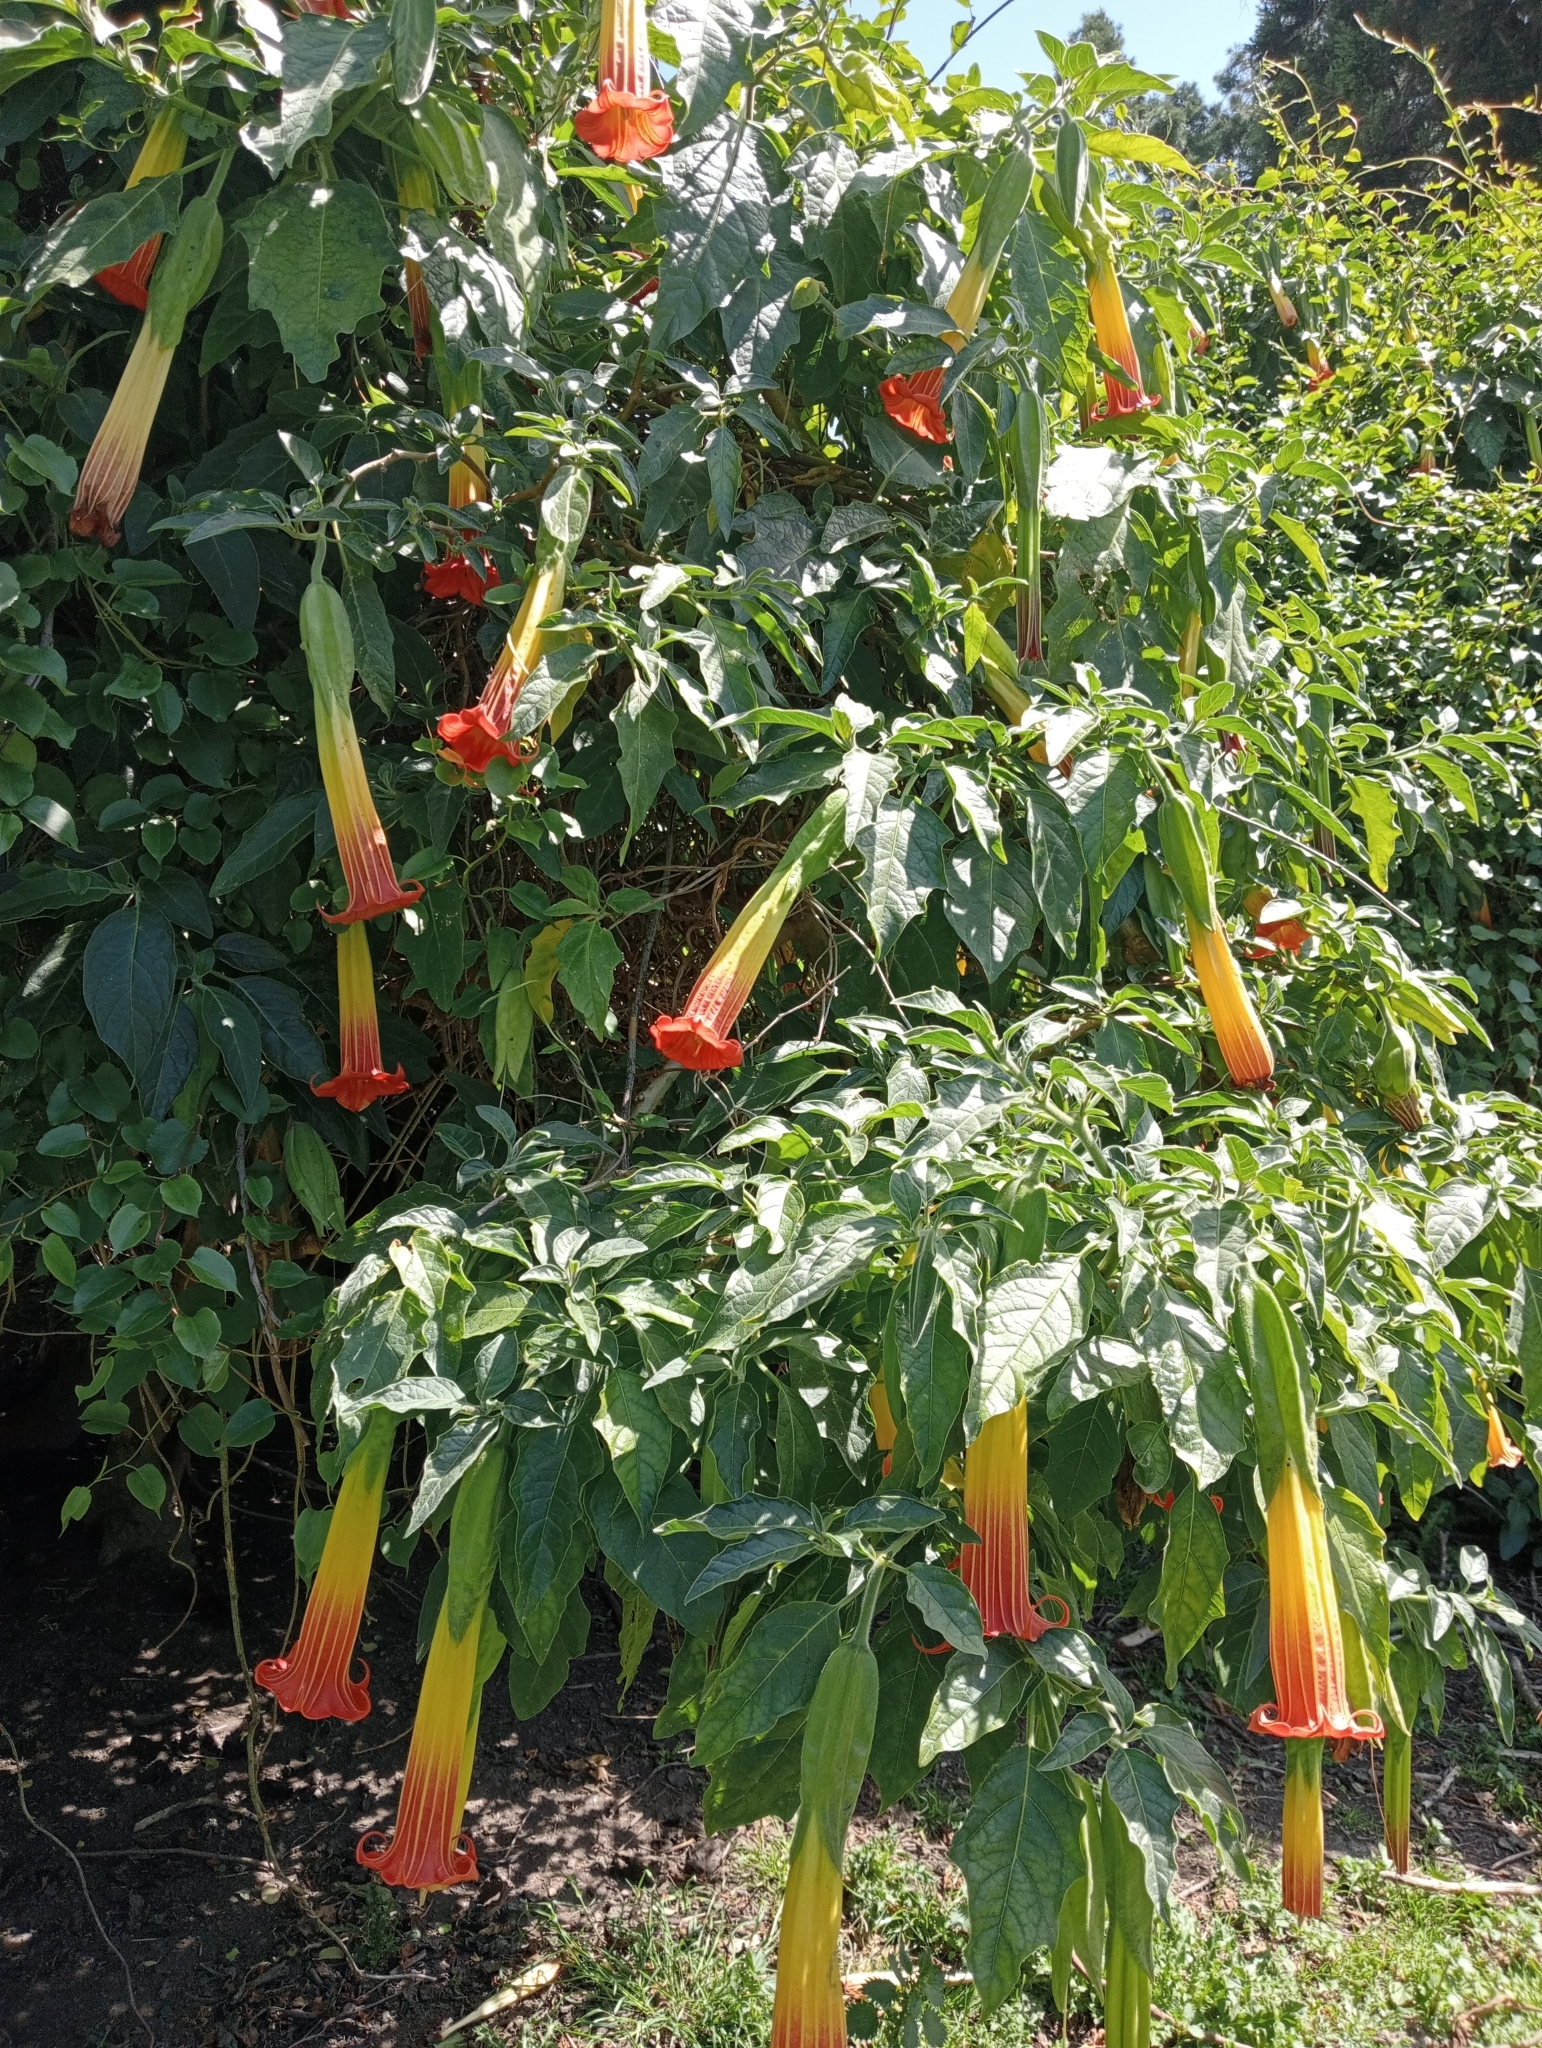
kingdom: Plantae
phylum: Tracheophyta
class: Magnoliopsida
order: Solanales
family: Solanaceae
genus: Brugmansia
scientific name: Brugmansia sanguinea
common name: Red floripontio
